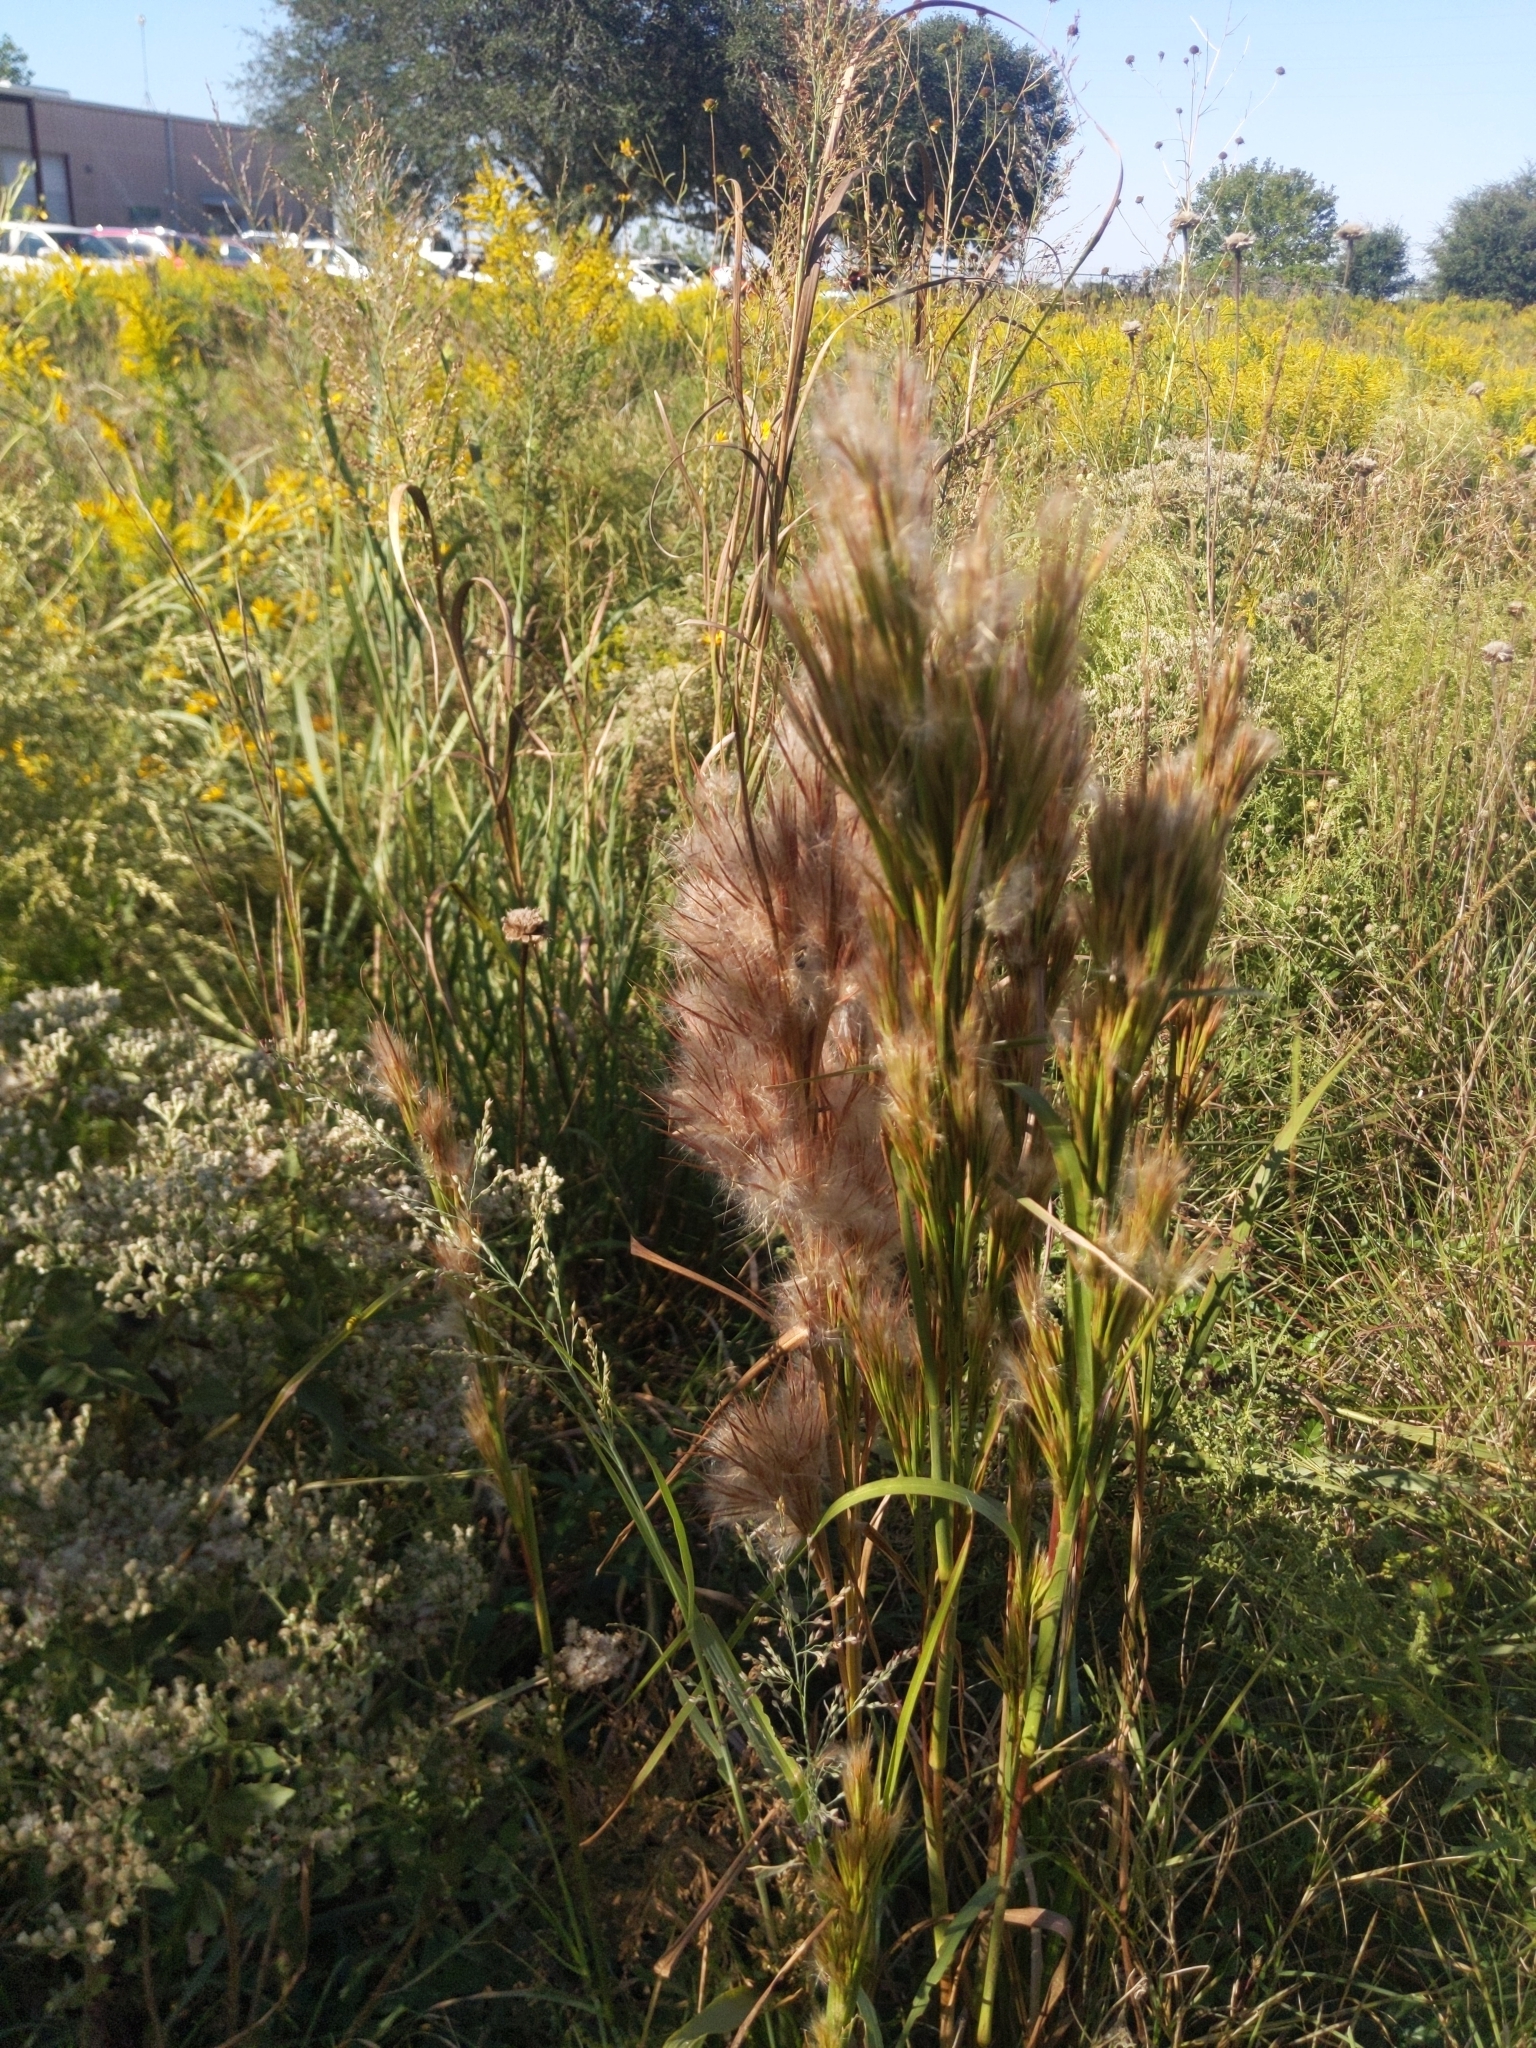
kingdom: Plantae
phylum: Tracheophyta
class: Liliopsida
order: Poales
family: Poaceae
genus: Andropogon
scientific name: Andropogon tenuispatheus
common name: Bushy bluestem
